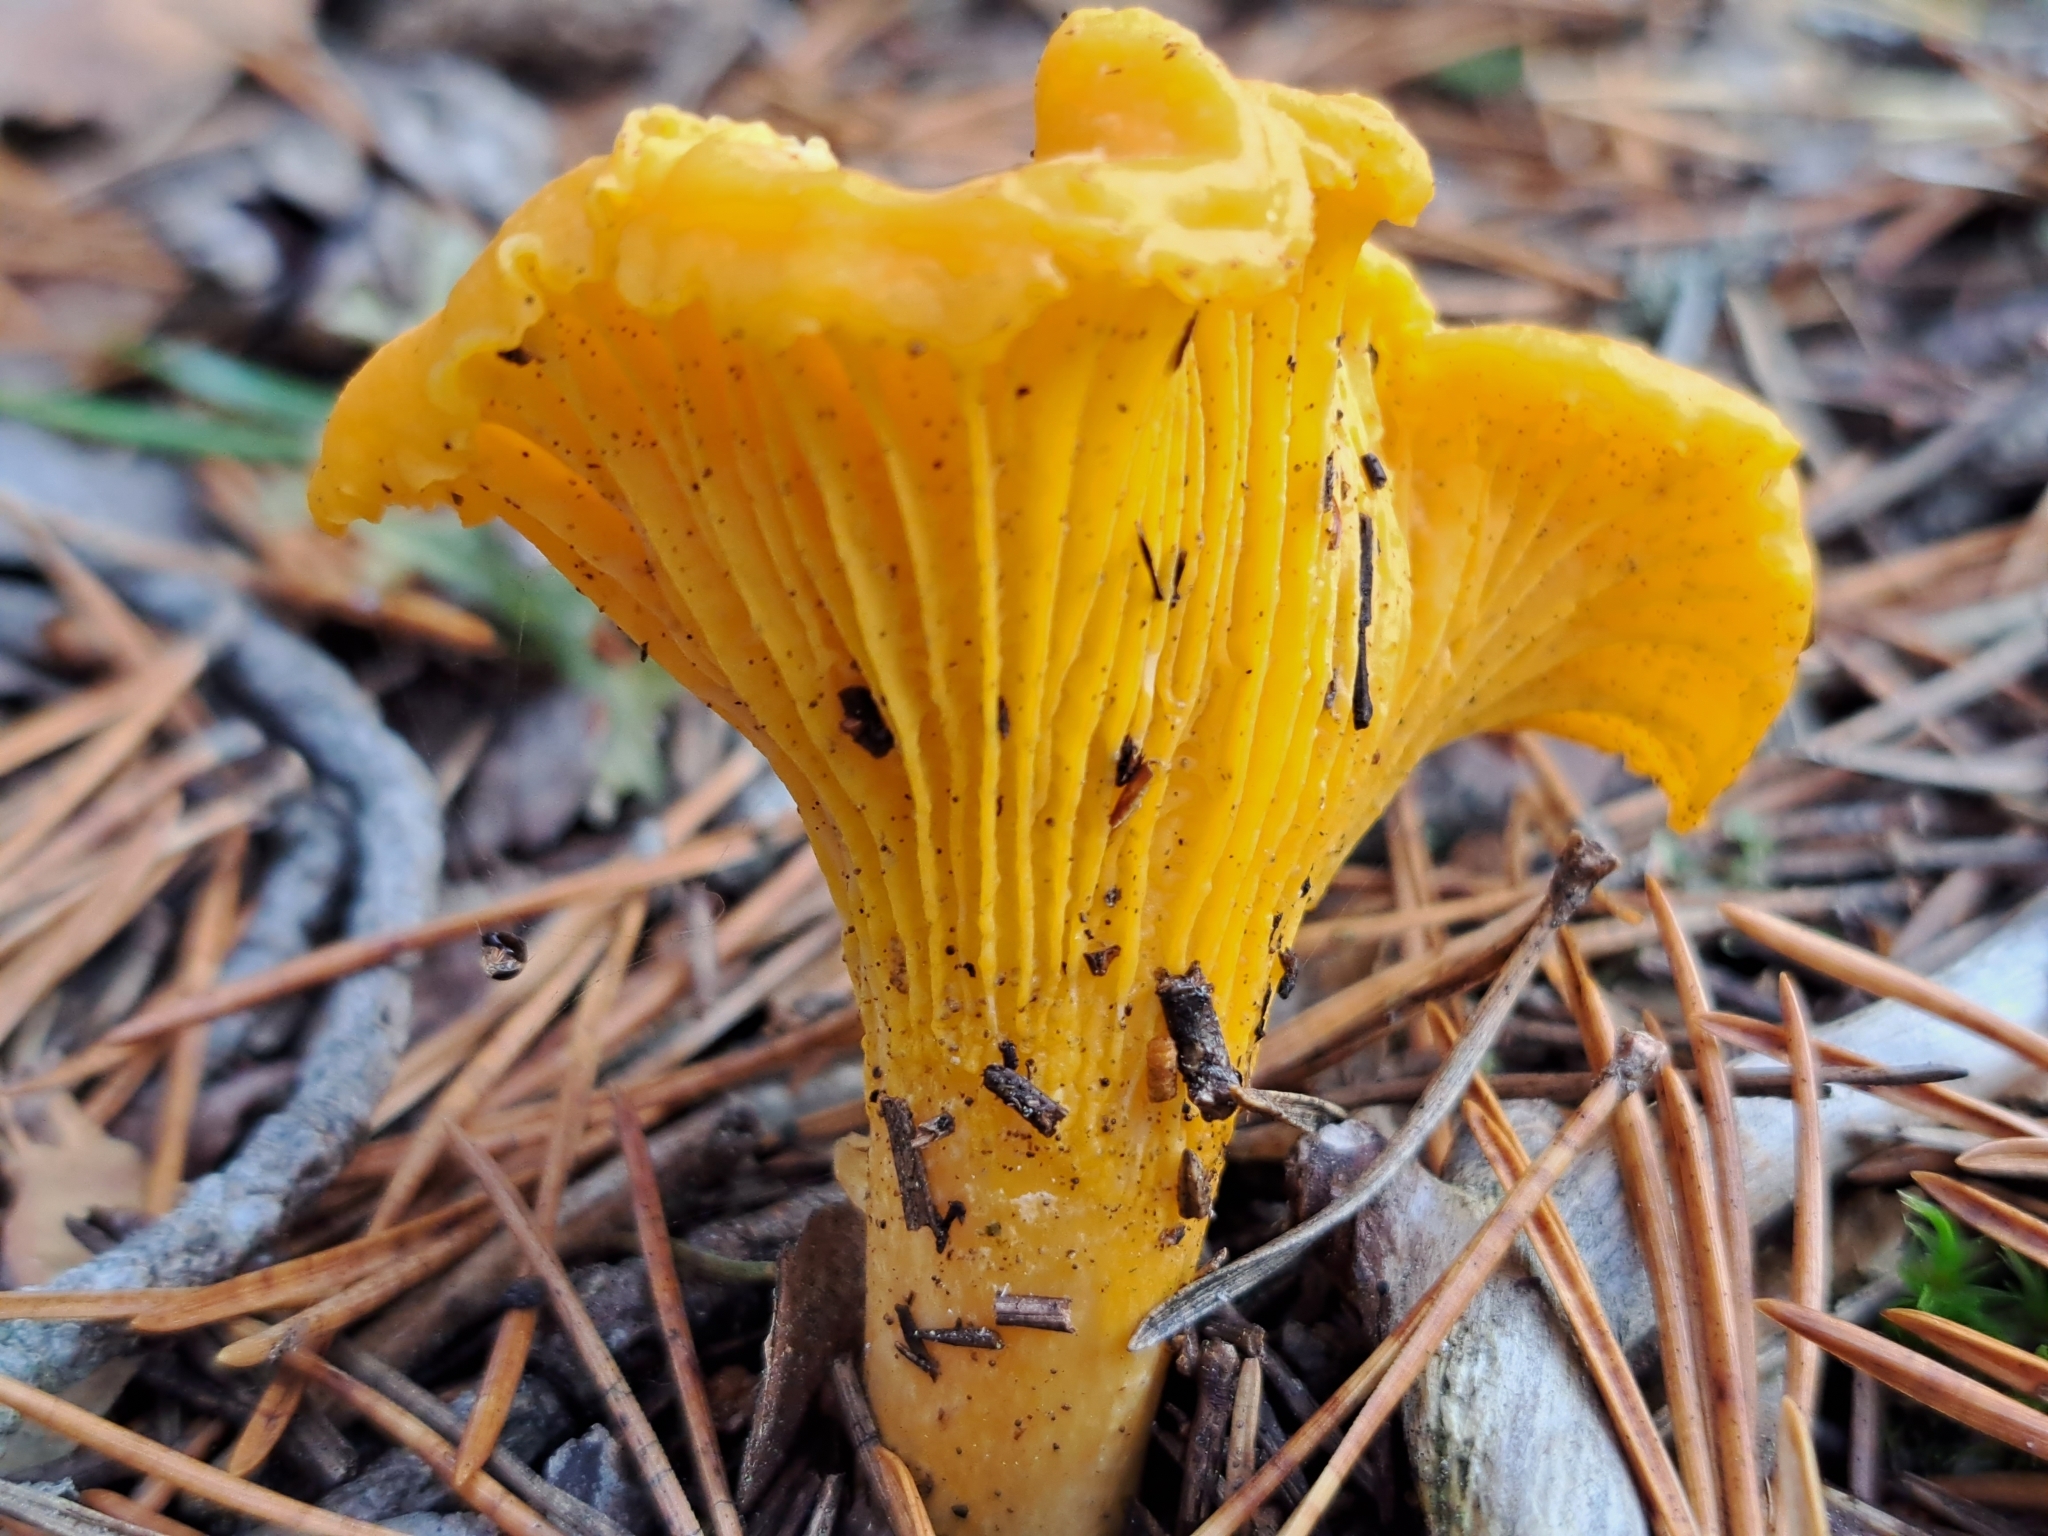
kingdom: Fungi
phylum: Basidiomycota
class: Agaricomycetes
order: Cantharellales
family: Hydnaceae
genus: Cantharellus
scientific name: Cantharellus cibarius
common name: Chanterelle
